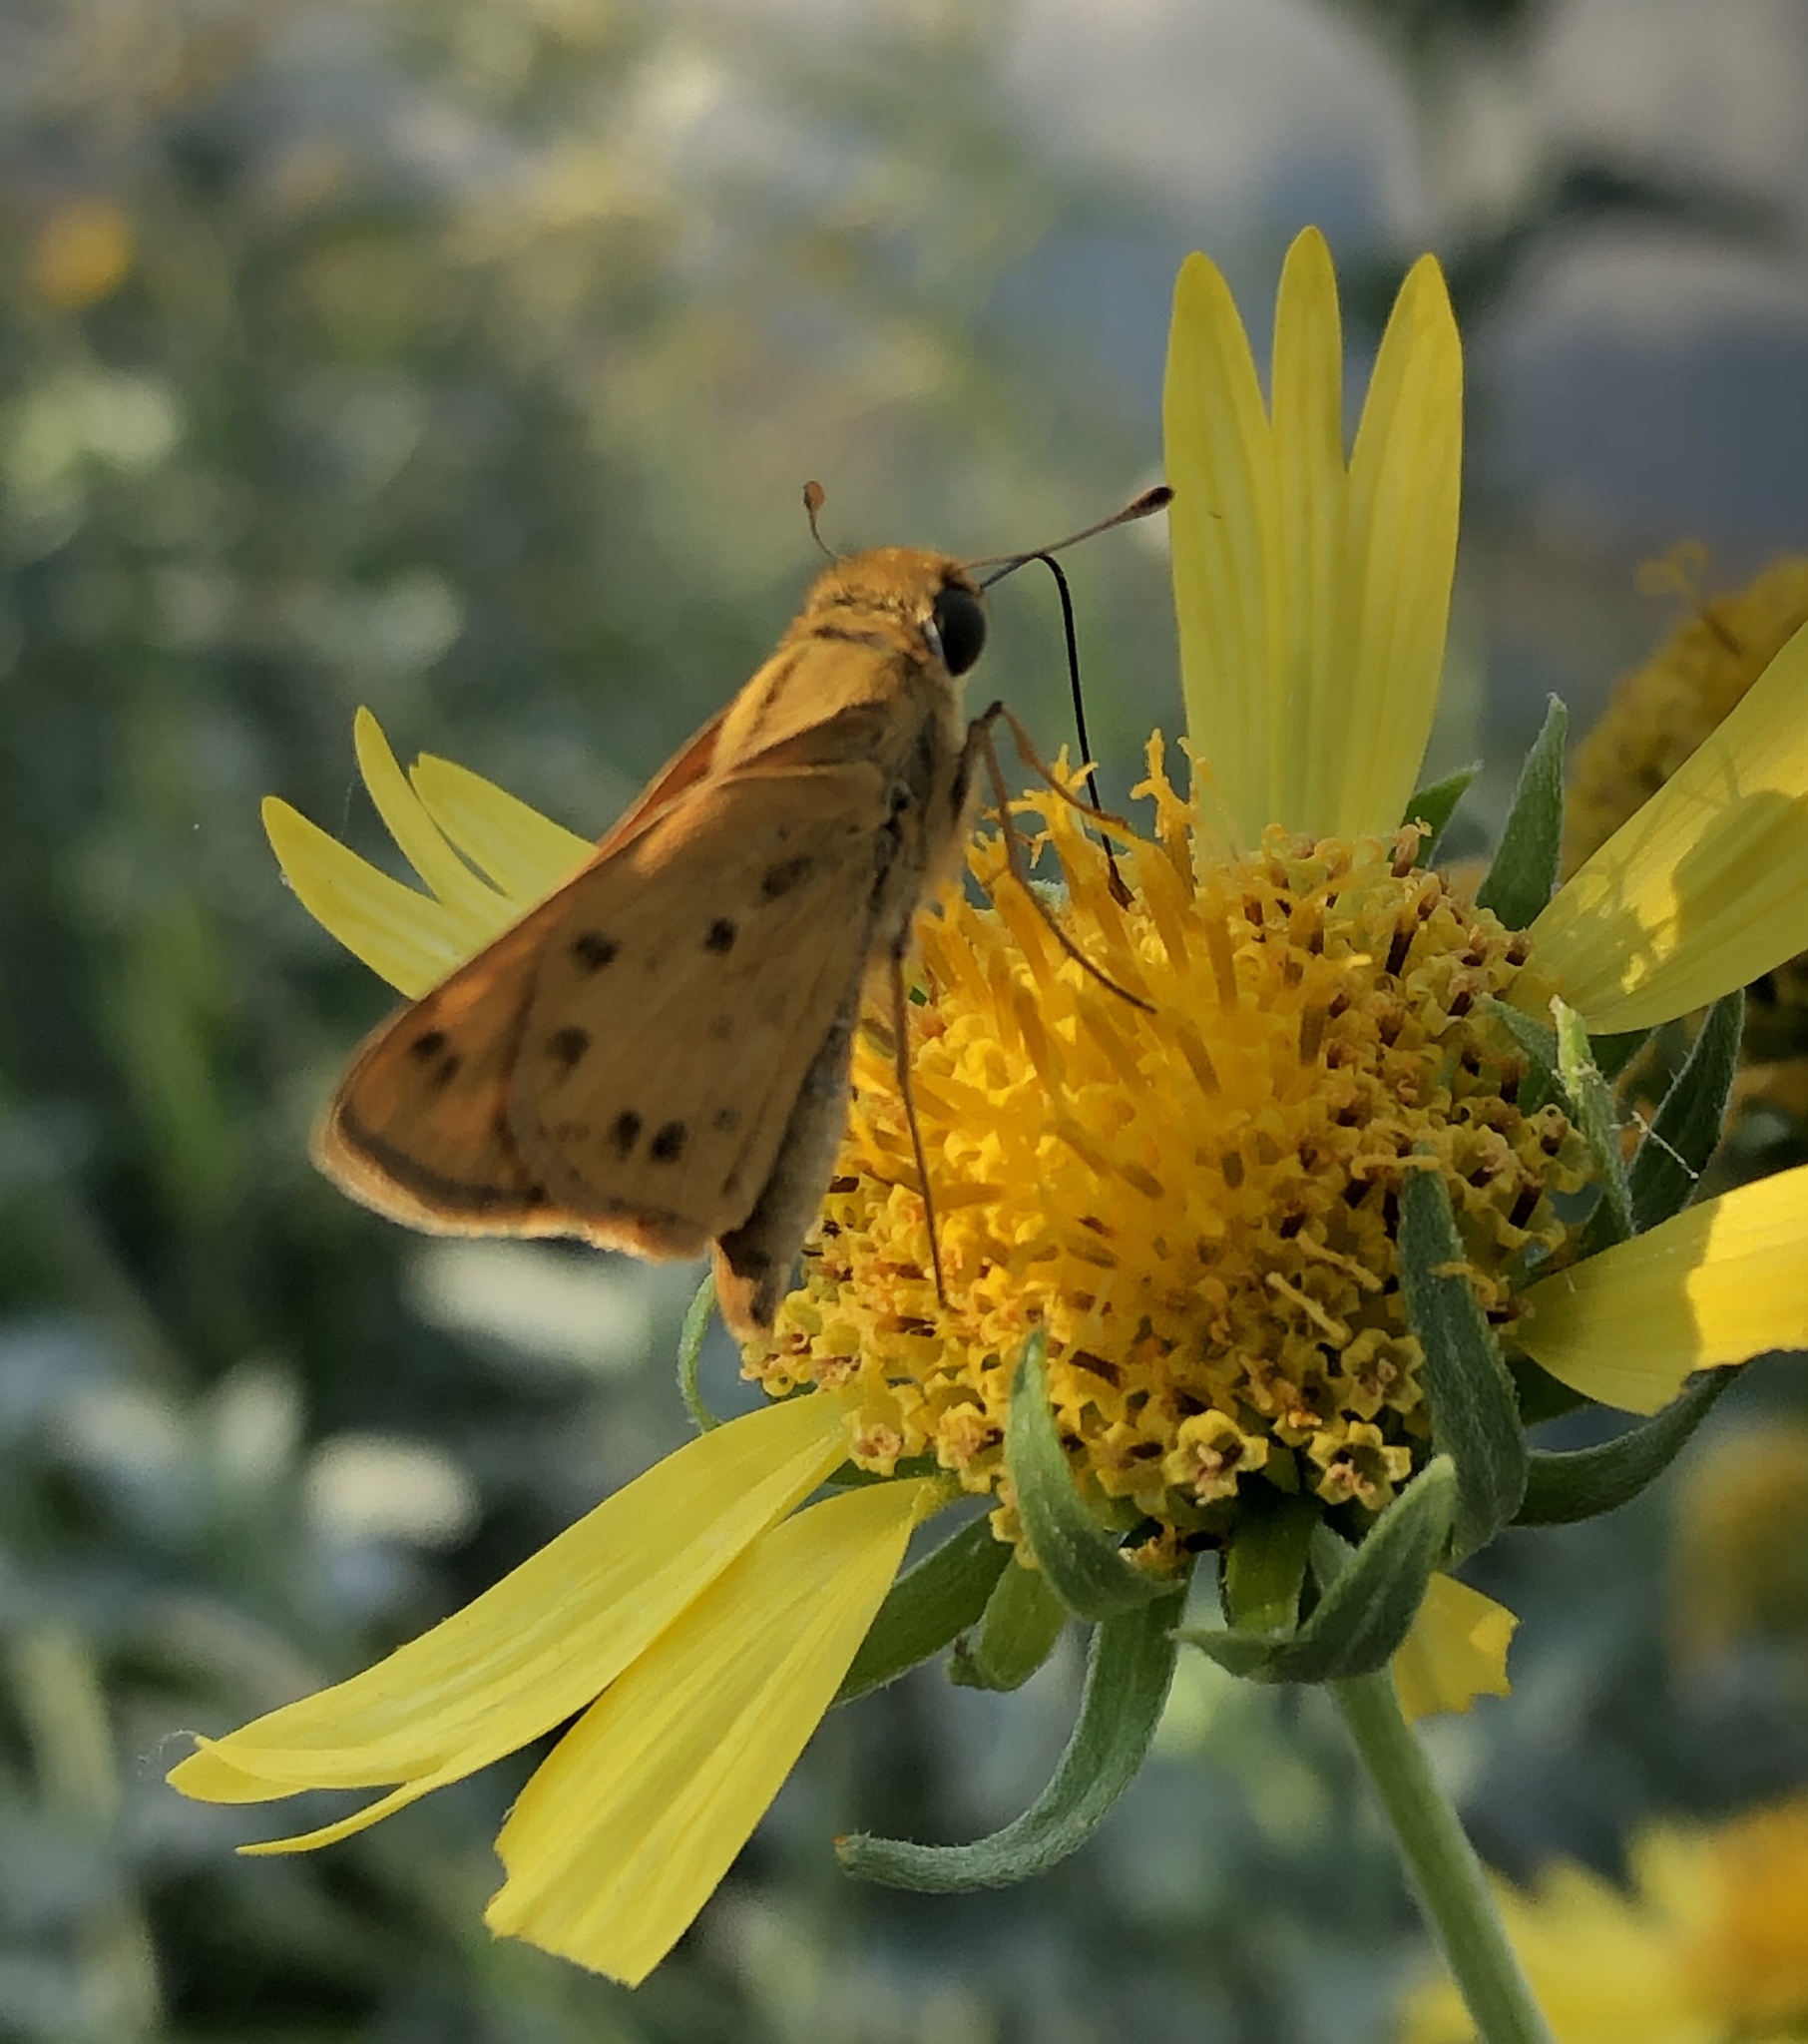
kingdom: Animalia
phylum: Arthropoda
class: Insecta
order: Lepidoptera
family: Hesperiidae
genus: Hylephila
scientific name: Hylephila phyleus
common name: Fiery skipper
